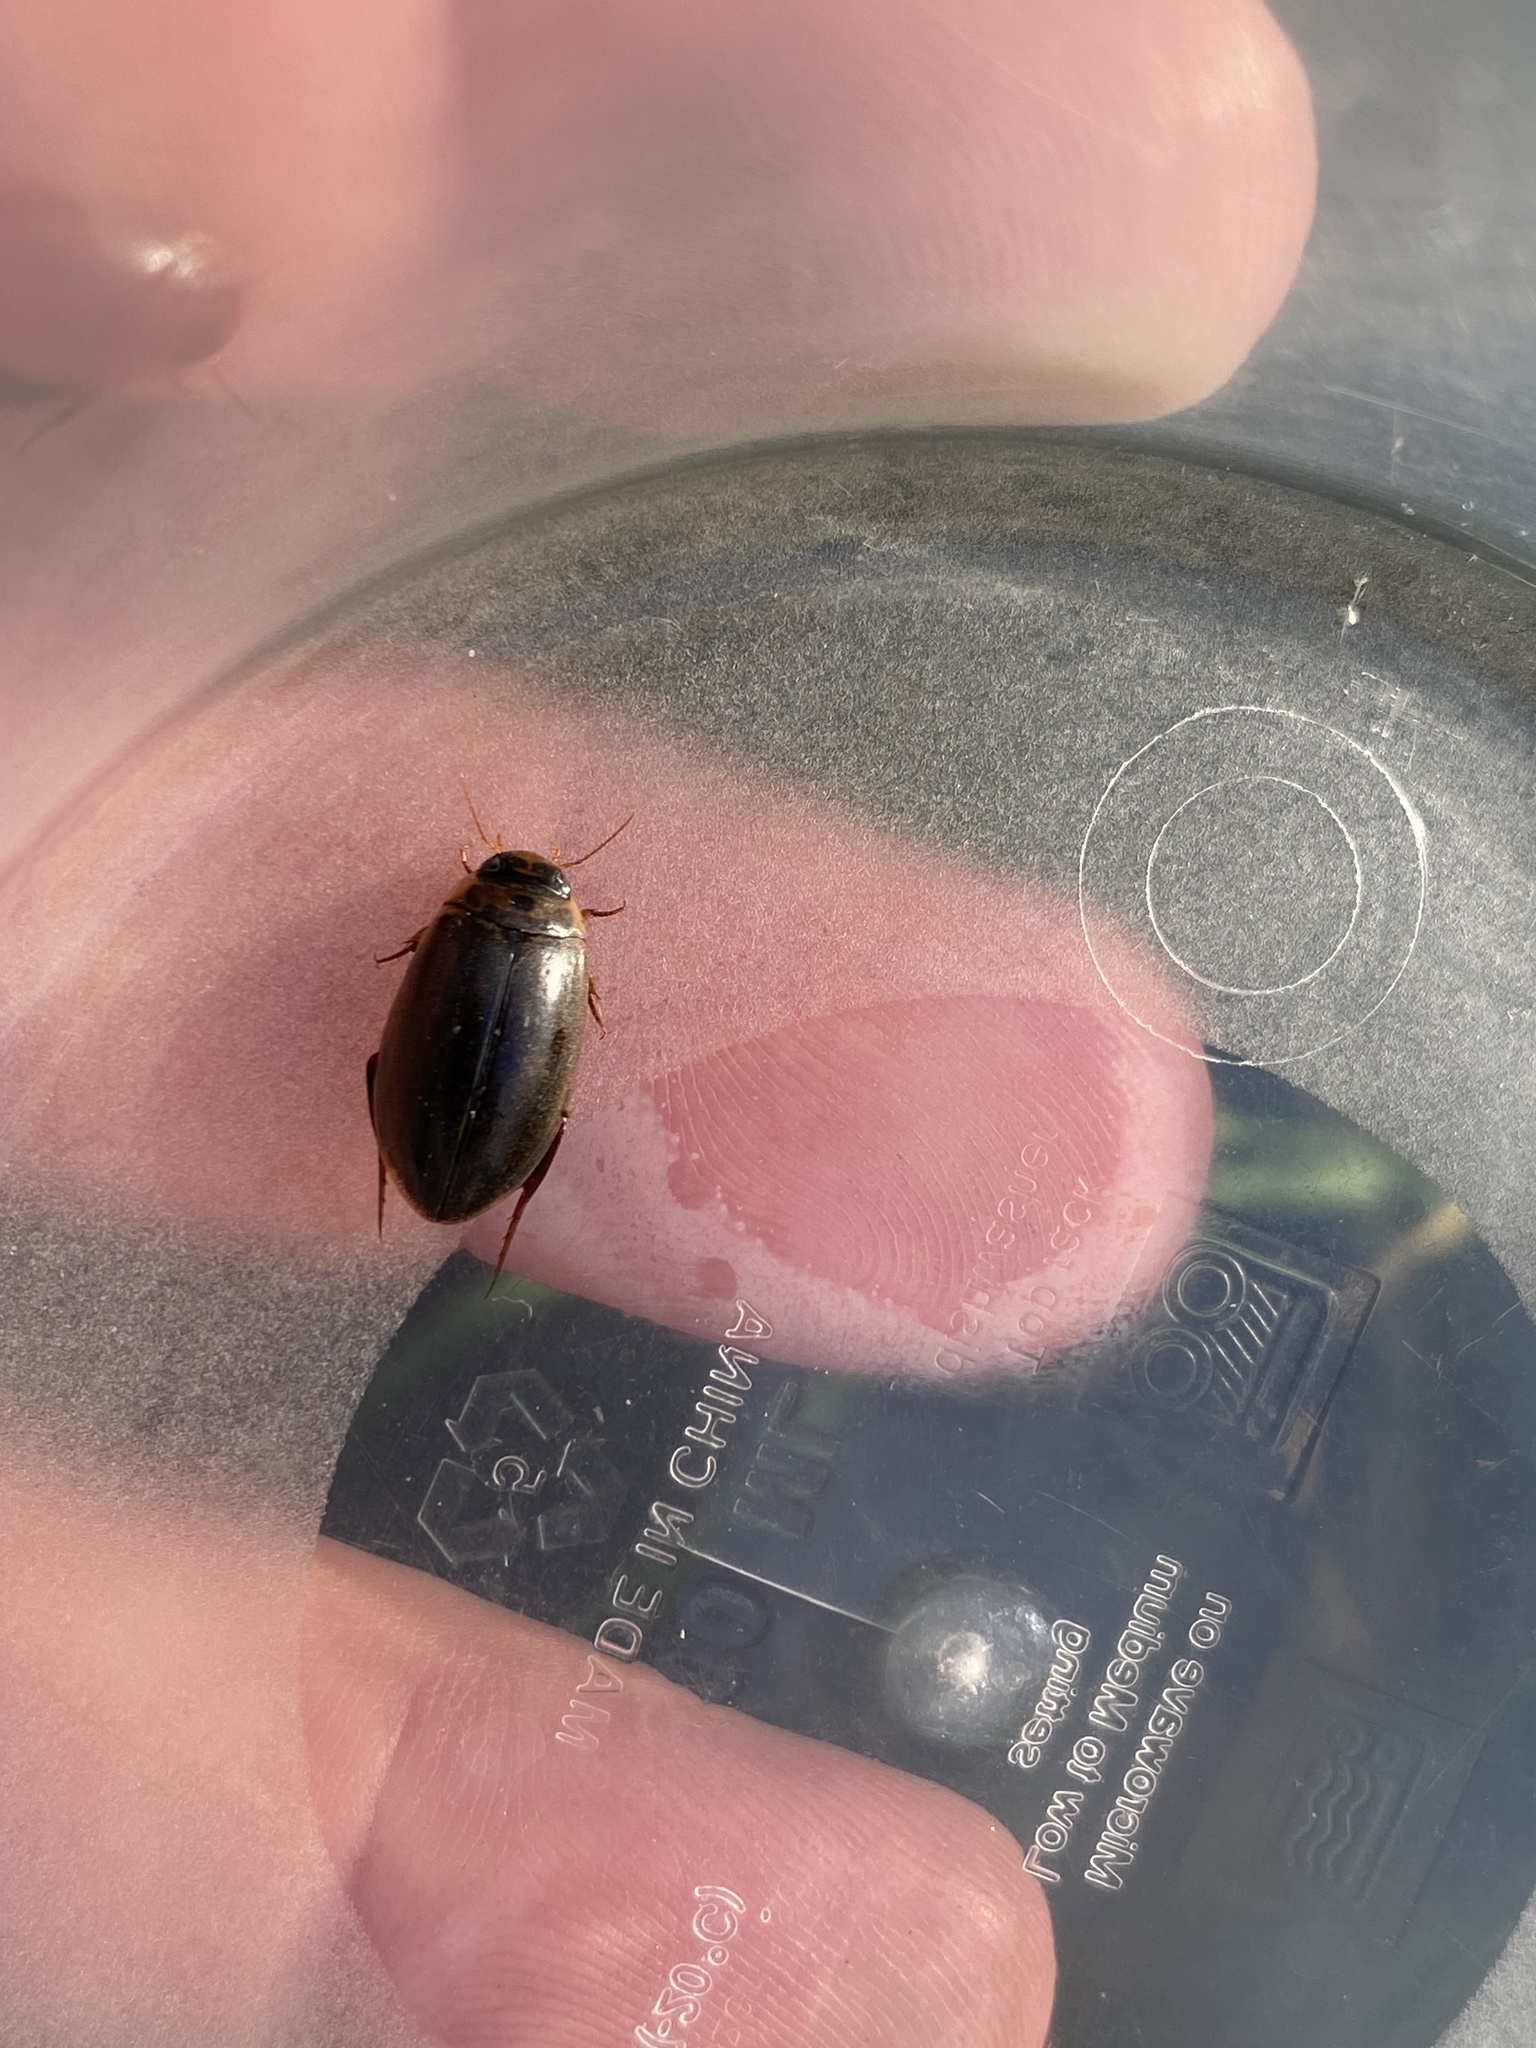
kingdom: Animalia
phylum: Arthropoda
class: Insecta
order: Coleoptera
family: Dytiscidae
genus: Rhantus
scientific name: Rhantus suturalis
